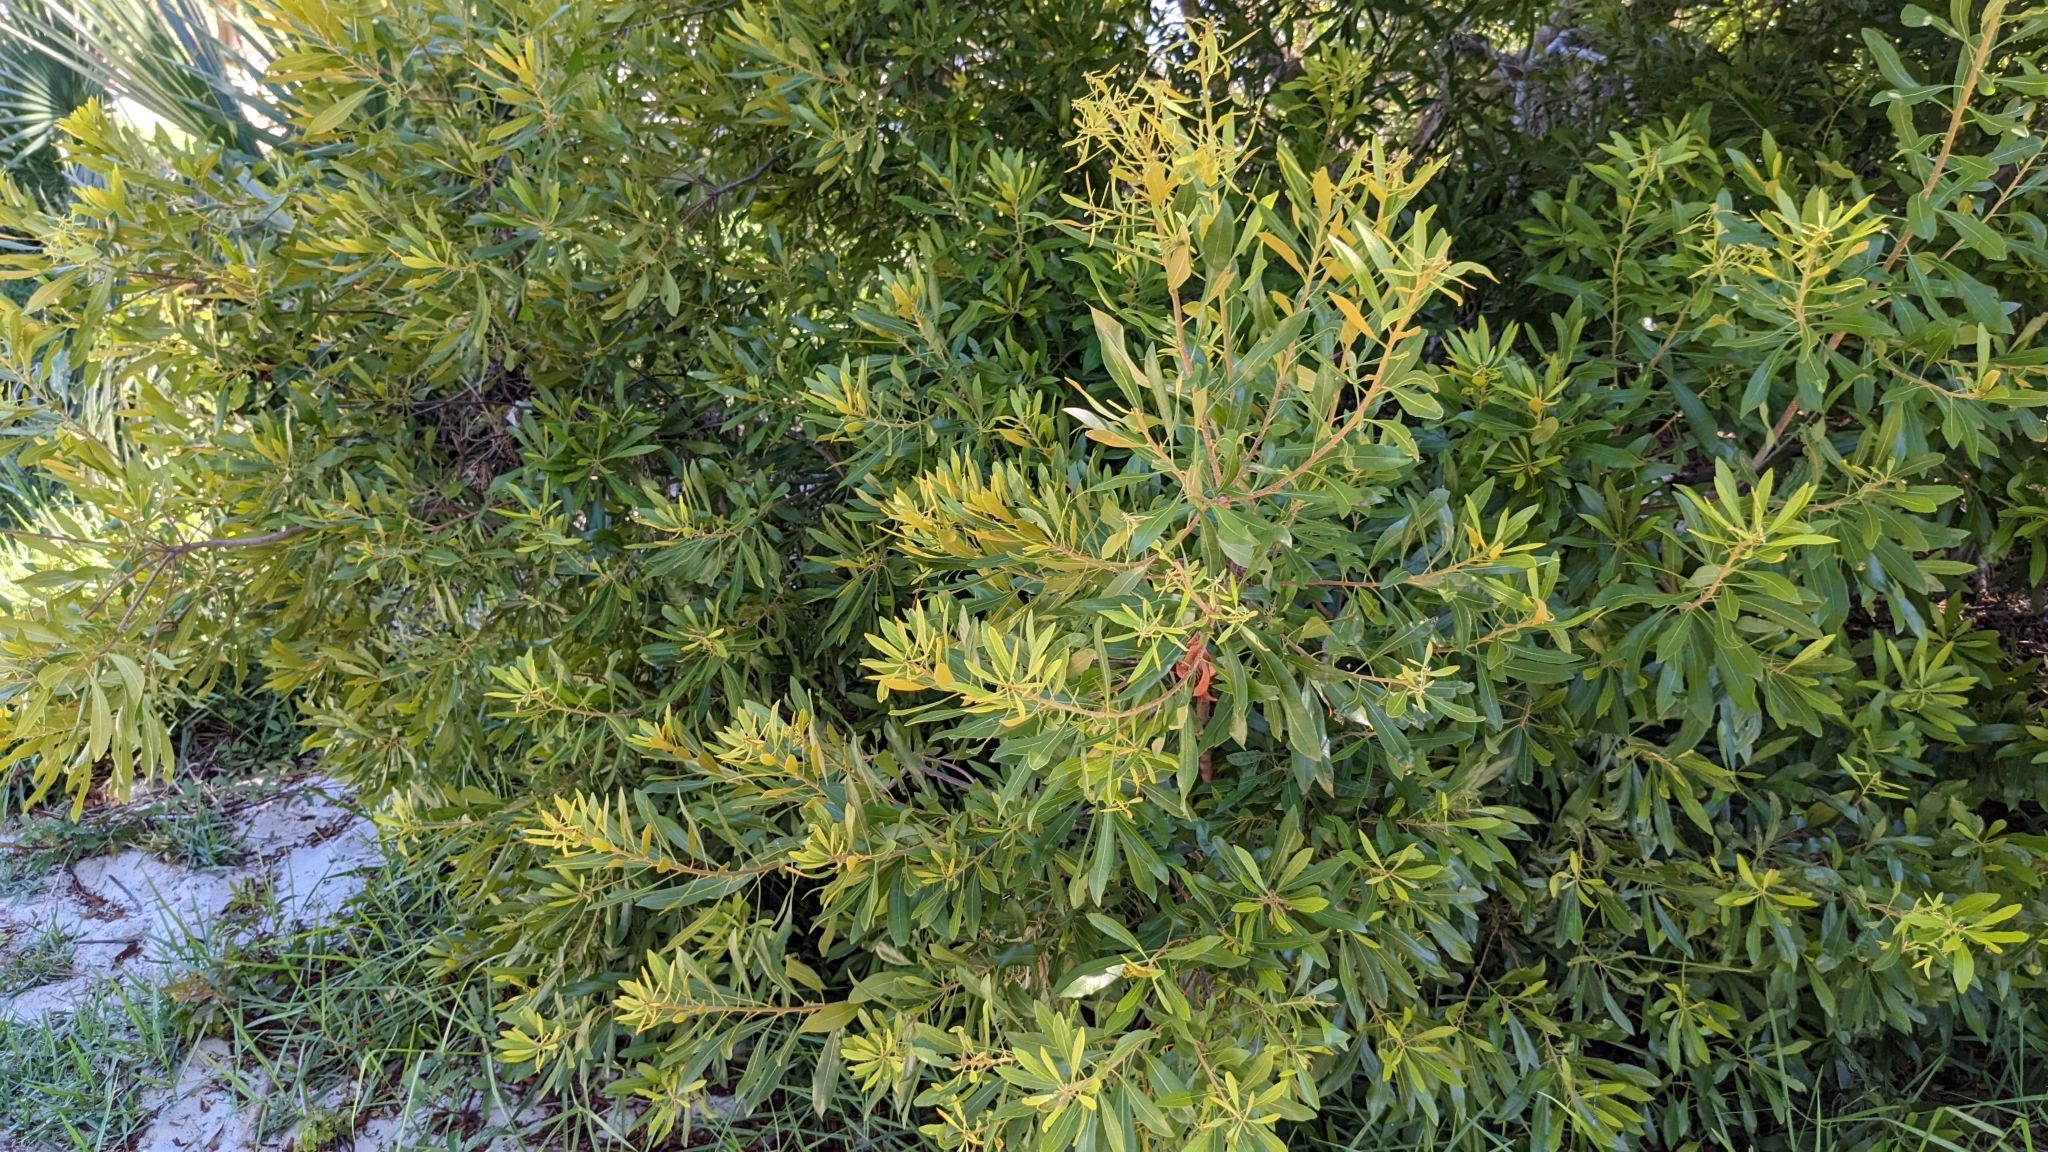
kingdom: Plantae
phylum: Tracheophyta
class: Magnoliopsida
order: Fagales
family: Myricaceae
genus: Morella
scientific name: Morella cerifera
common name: Wax myrtle
